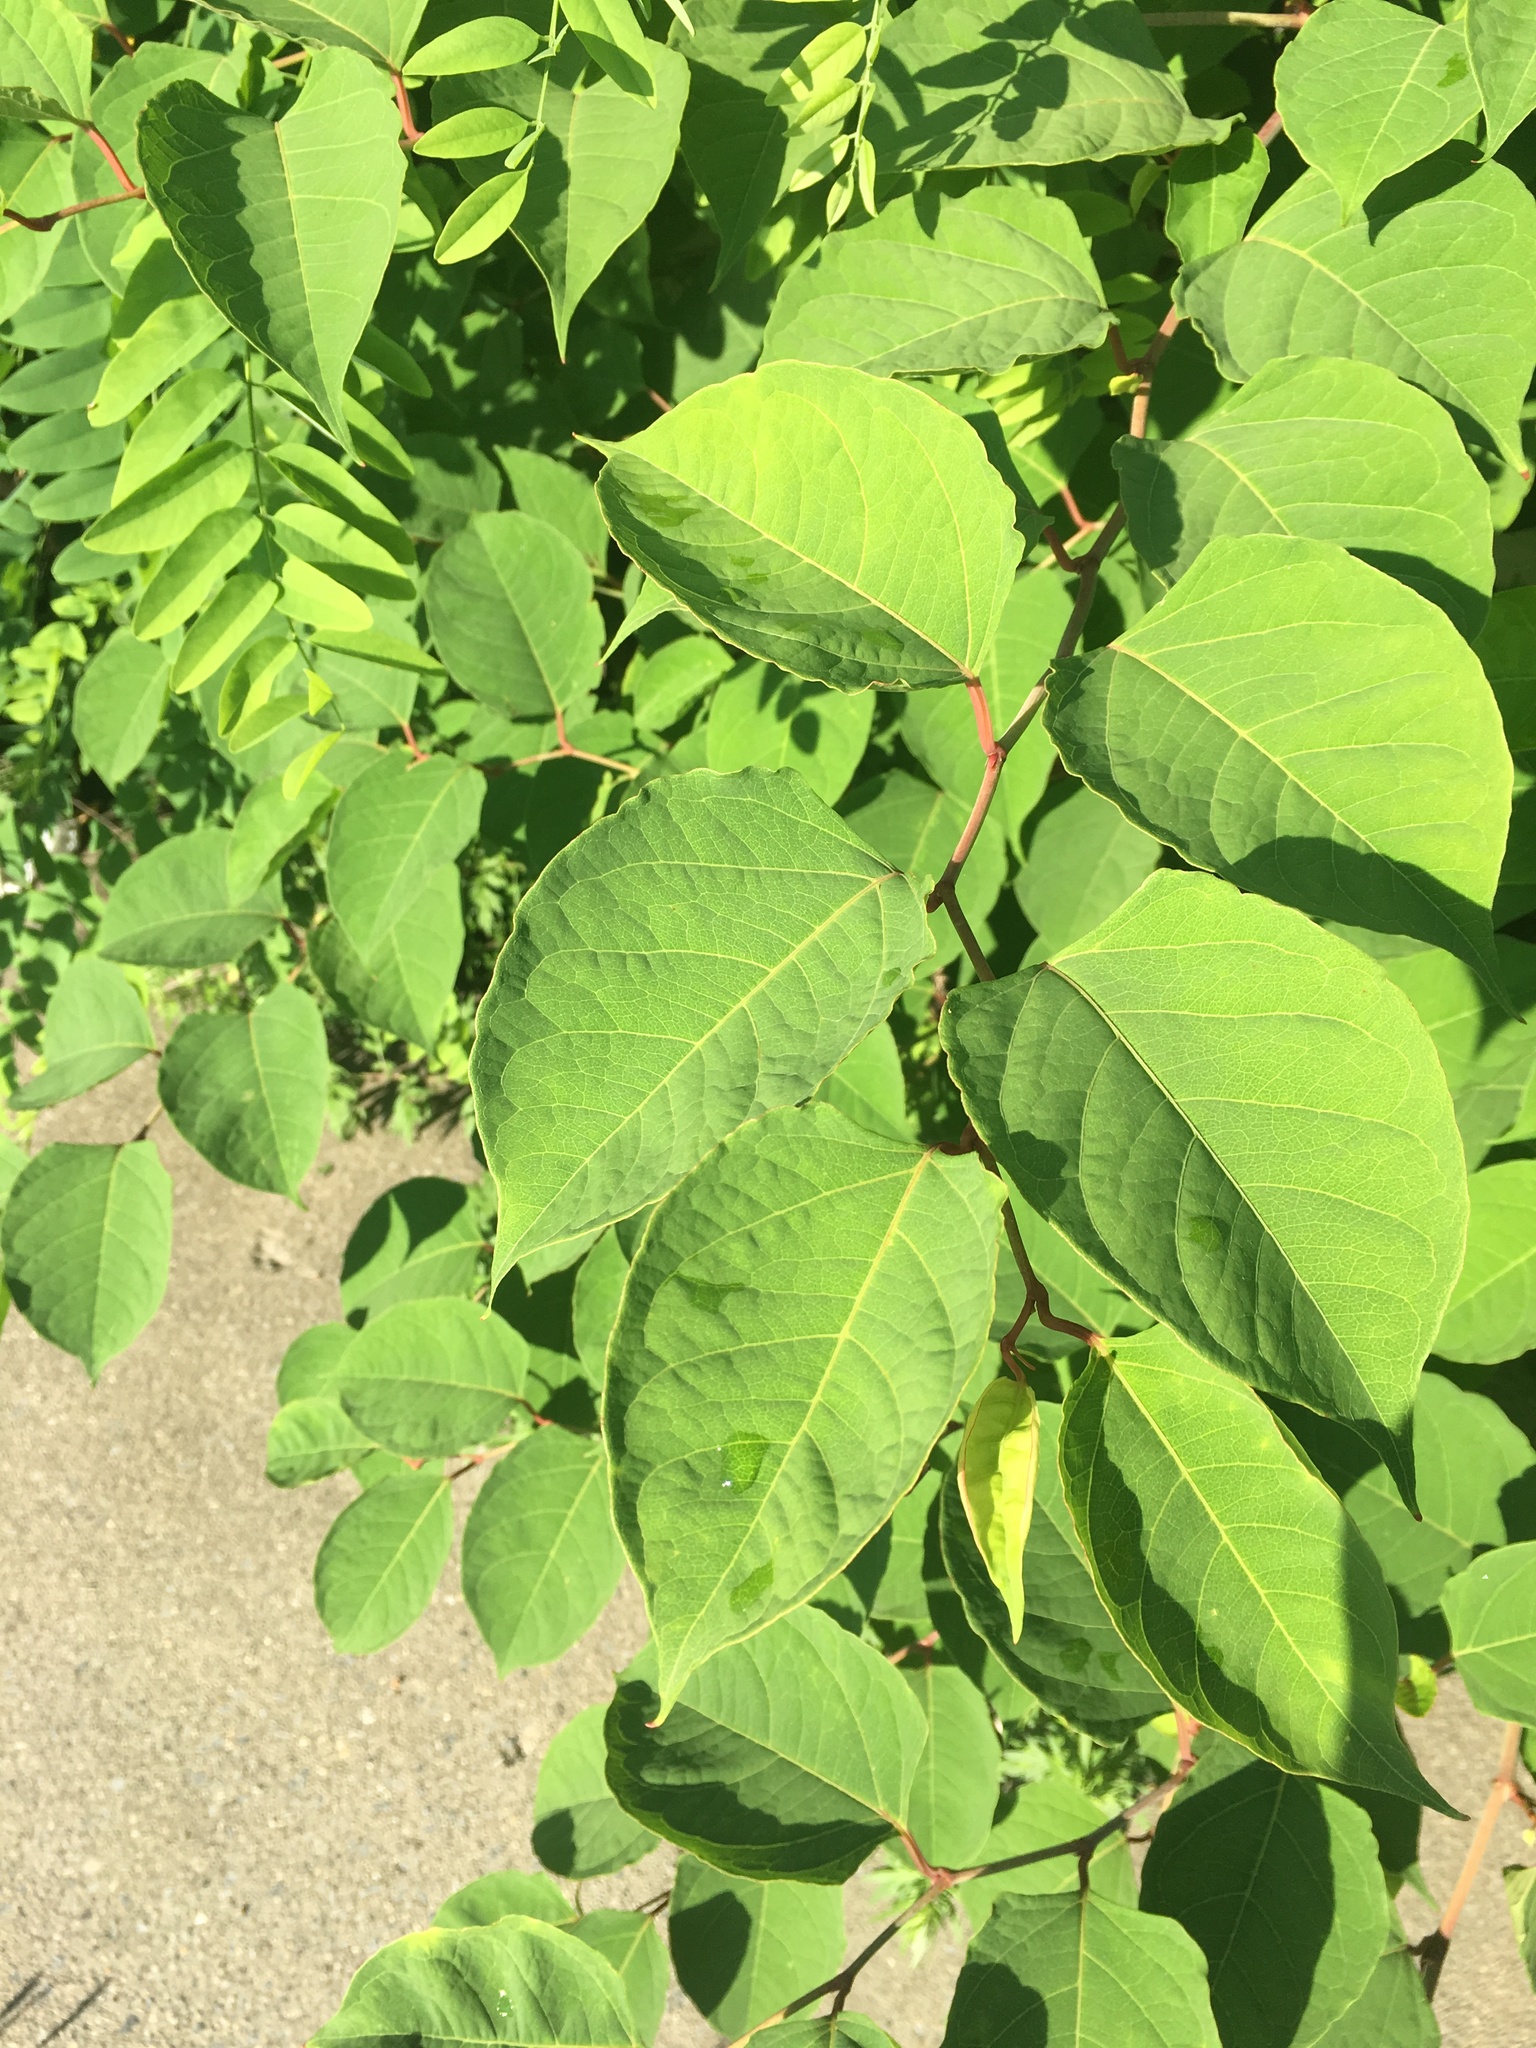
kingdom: Plantae
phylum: Tracheophyta
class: Magnoliopsida
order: Caryophyllales
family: Polygonaceae
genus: Reynoutria
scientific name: Reynoutria
